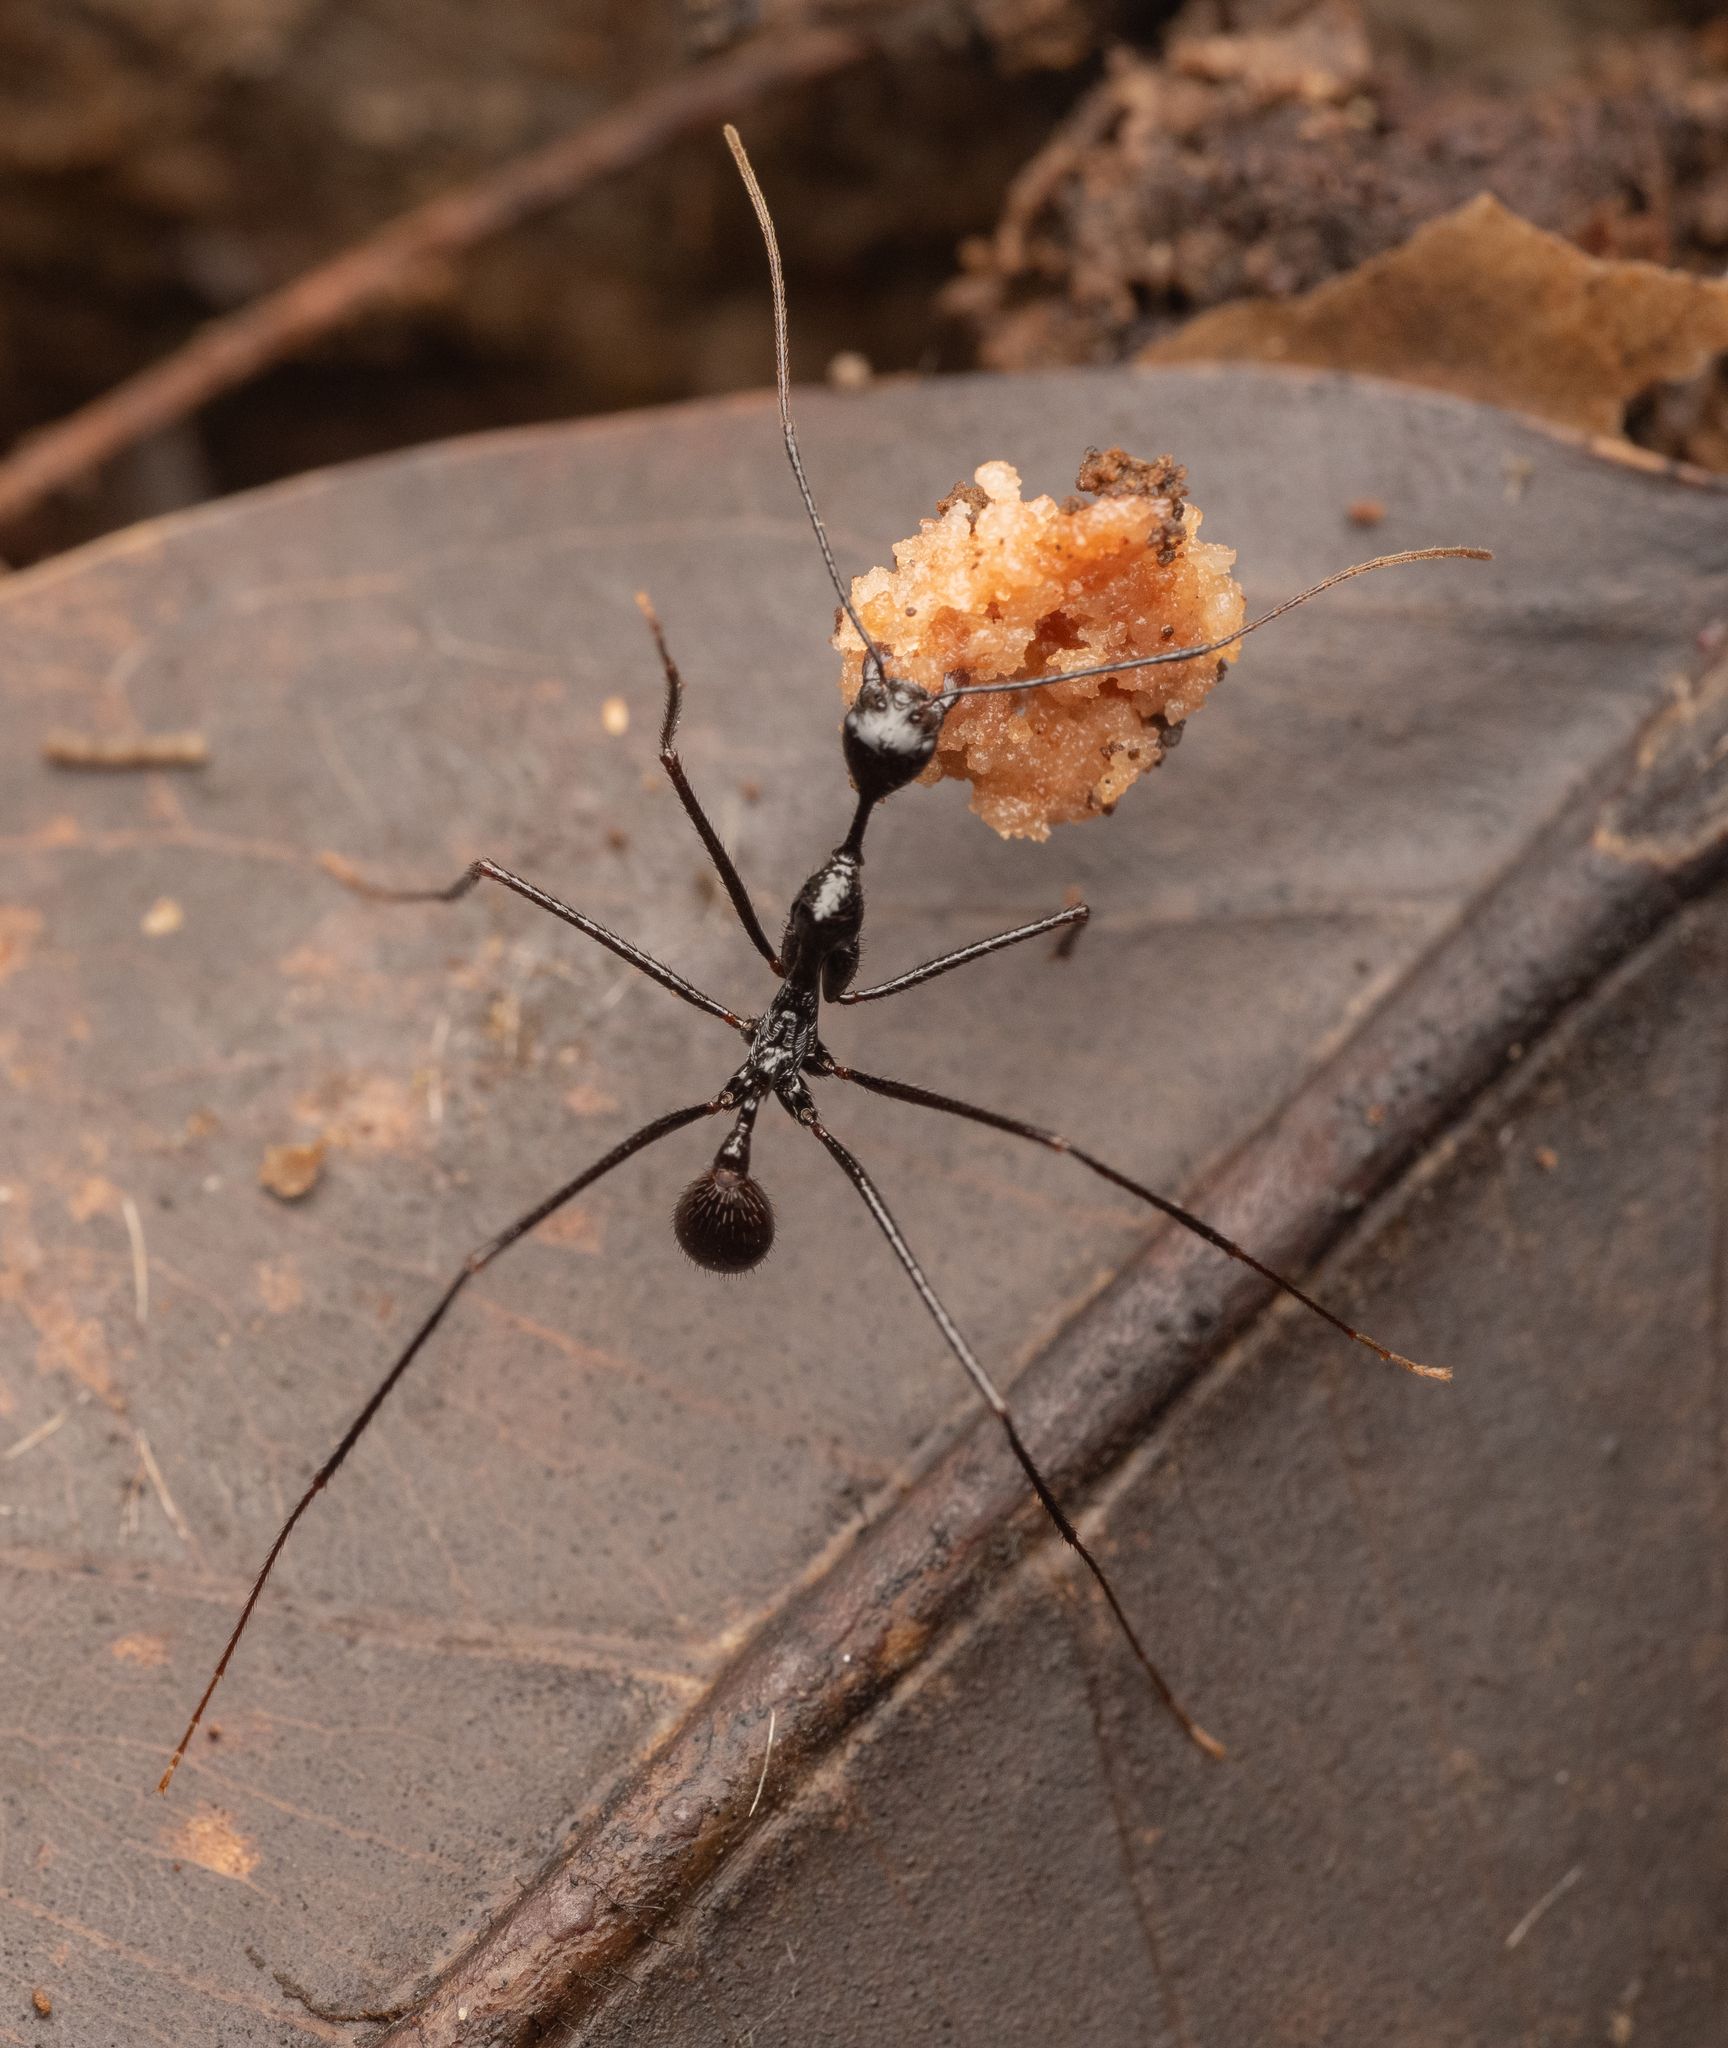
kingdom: Animalia
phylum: Arthropoda
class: Insecta
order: Hymenoptera
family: Formicidae
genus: Aphaenogaster
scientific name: Aphaenogaster dromedaria
